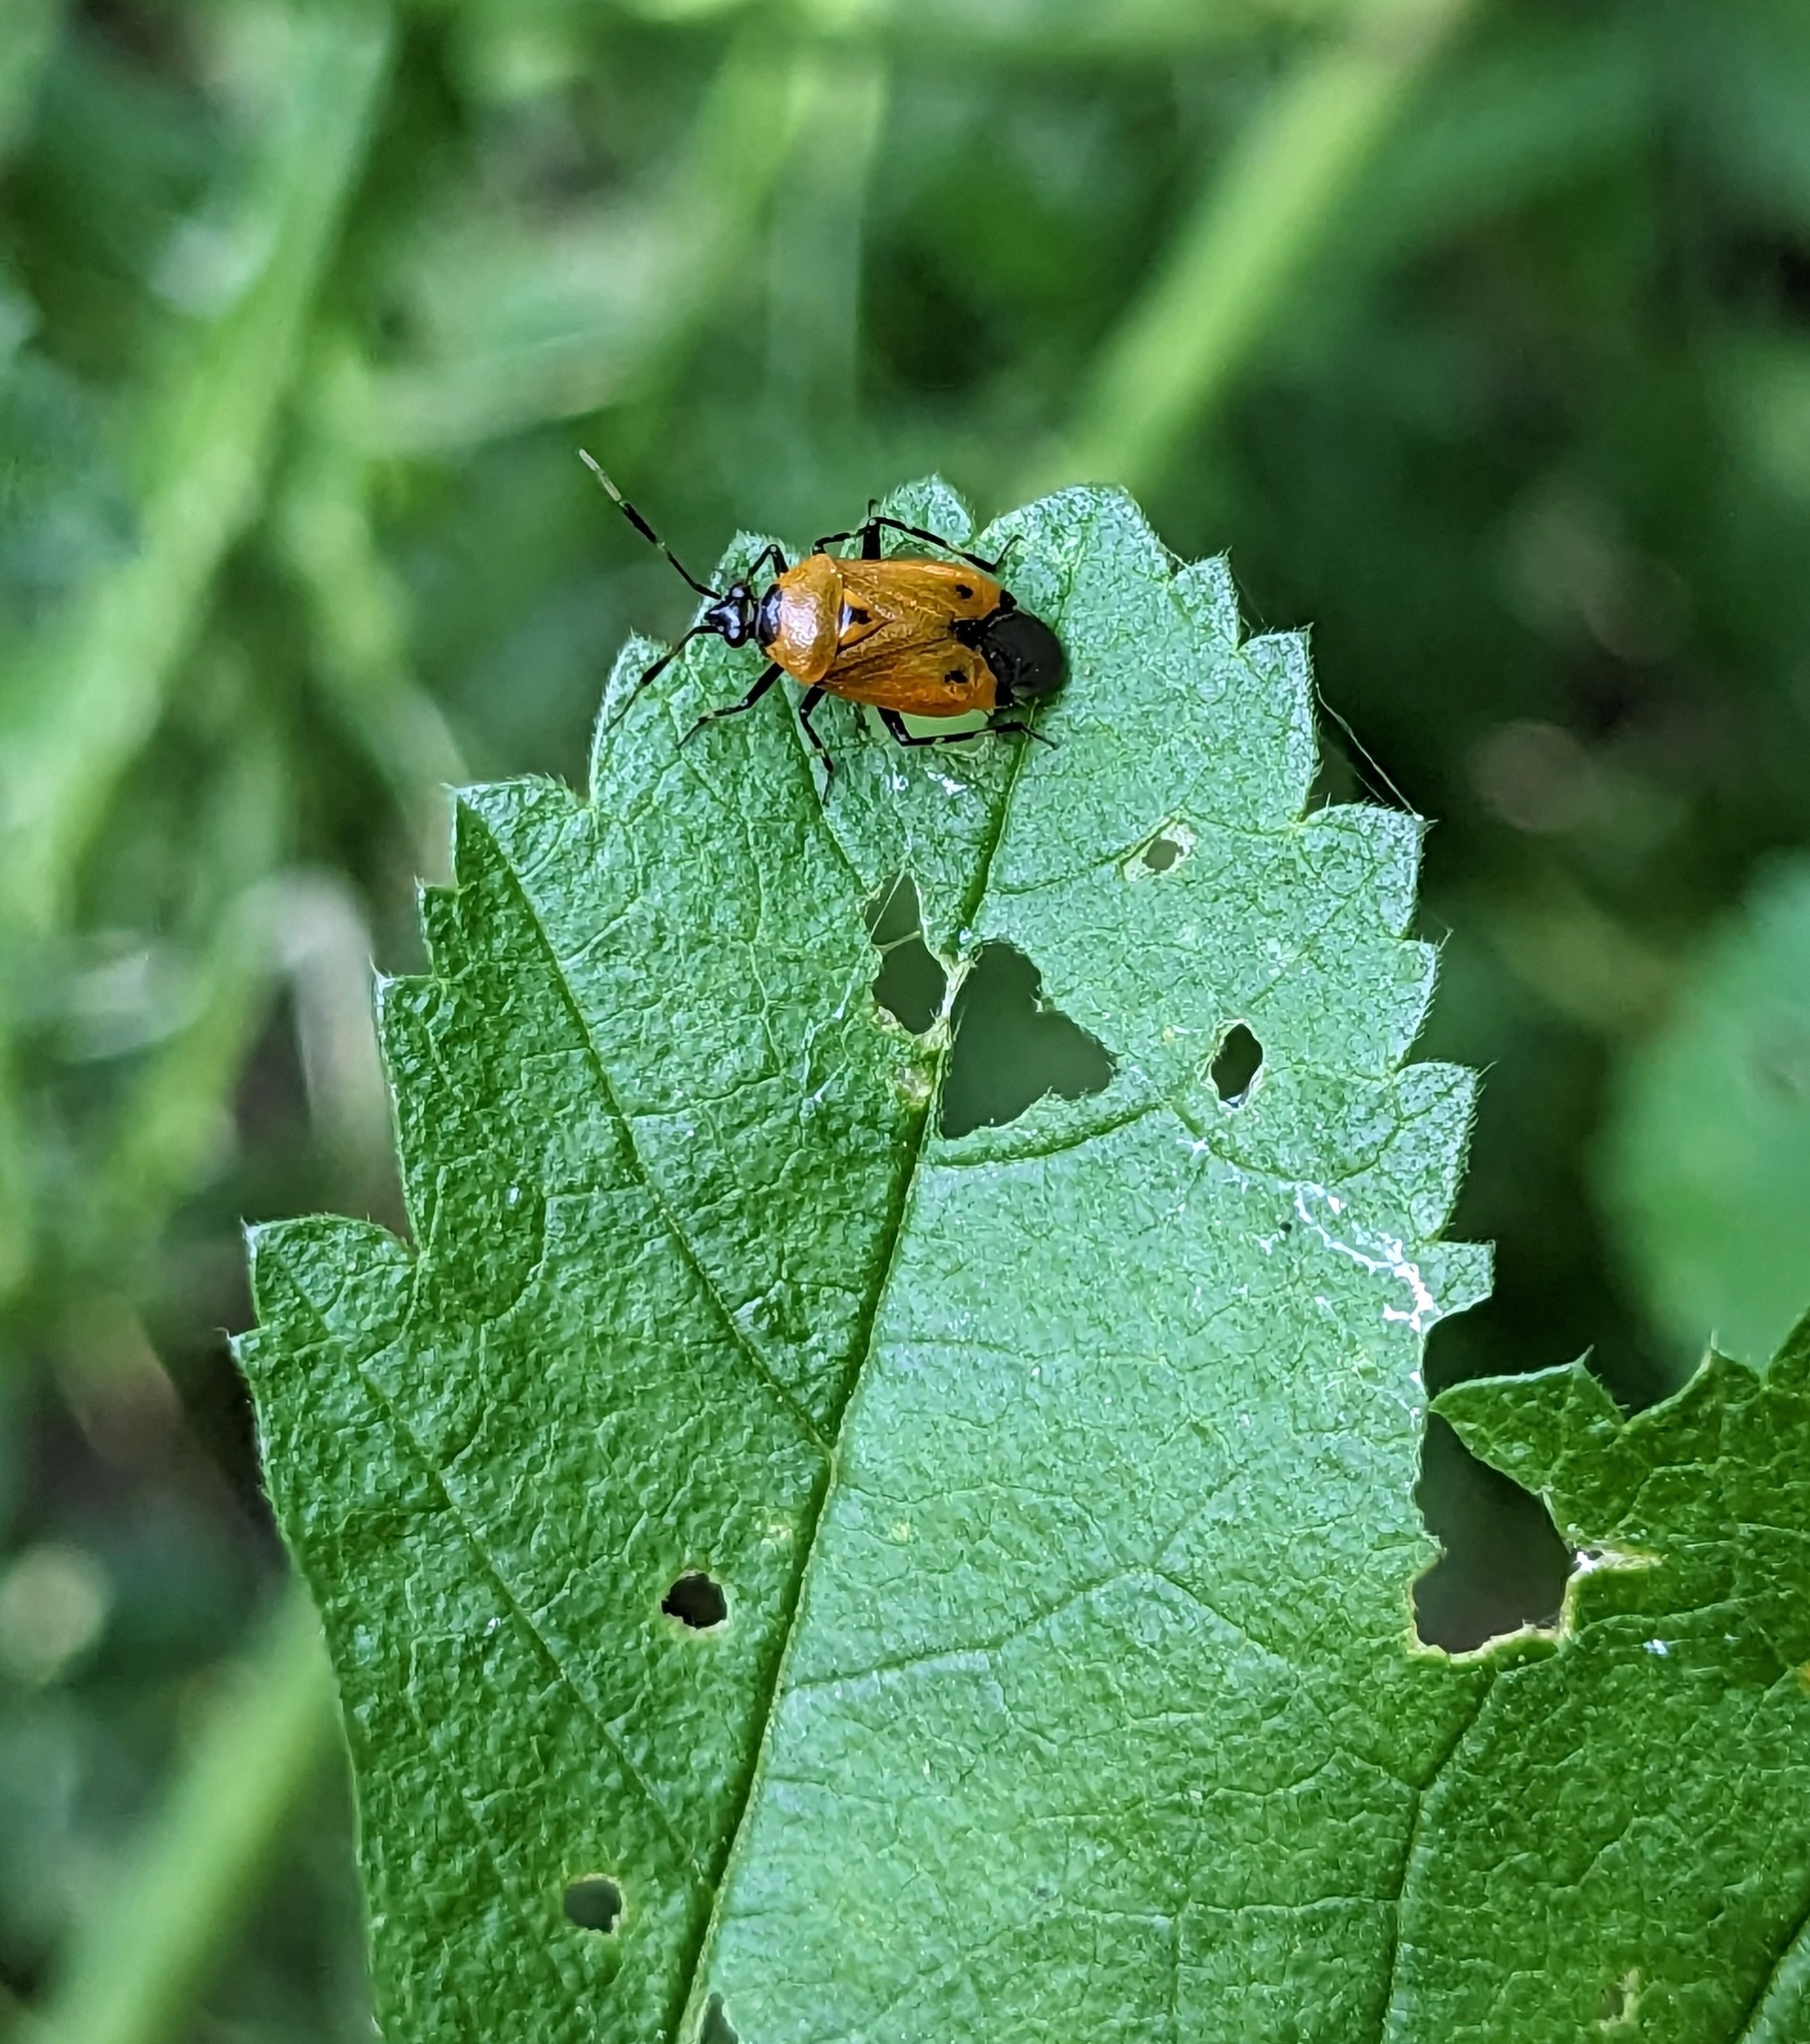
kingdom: Animalia
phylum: Arthropoda
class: Insecta
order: Hemiptera
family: Miridae
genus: Deraeocoris
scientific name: Deraeocoris punctum
